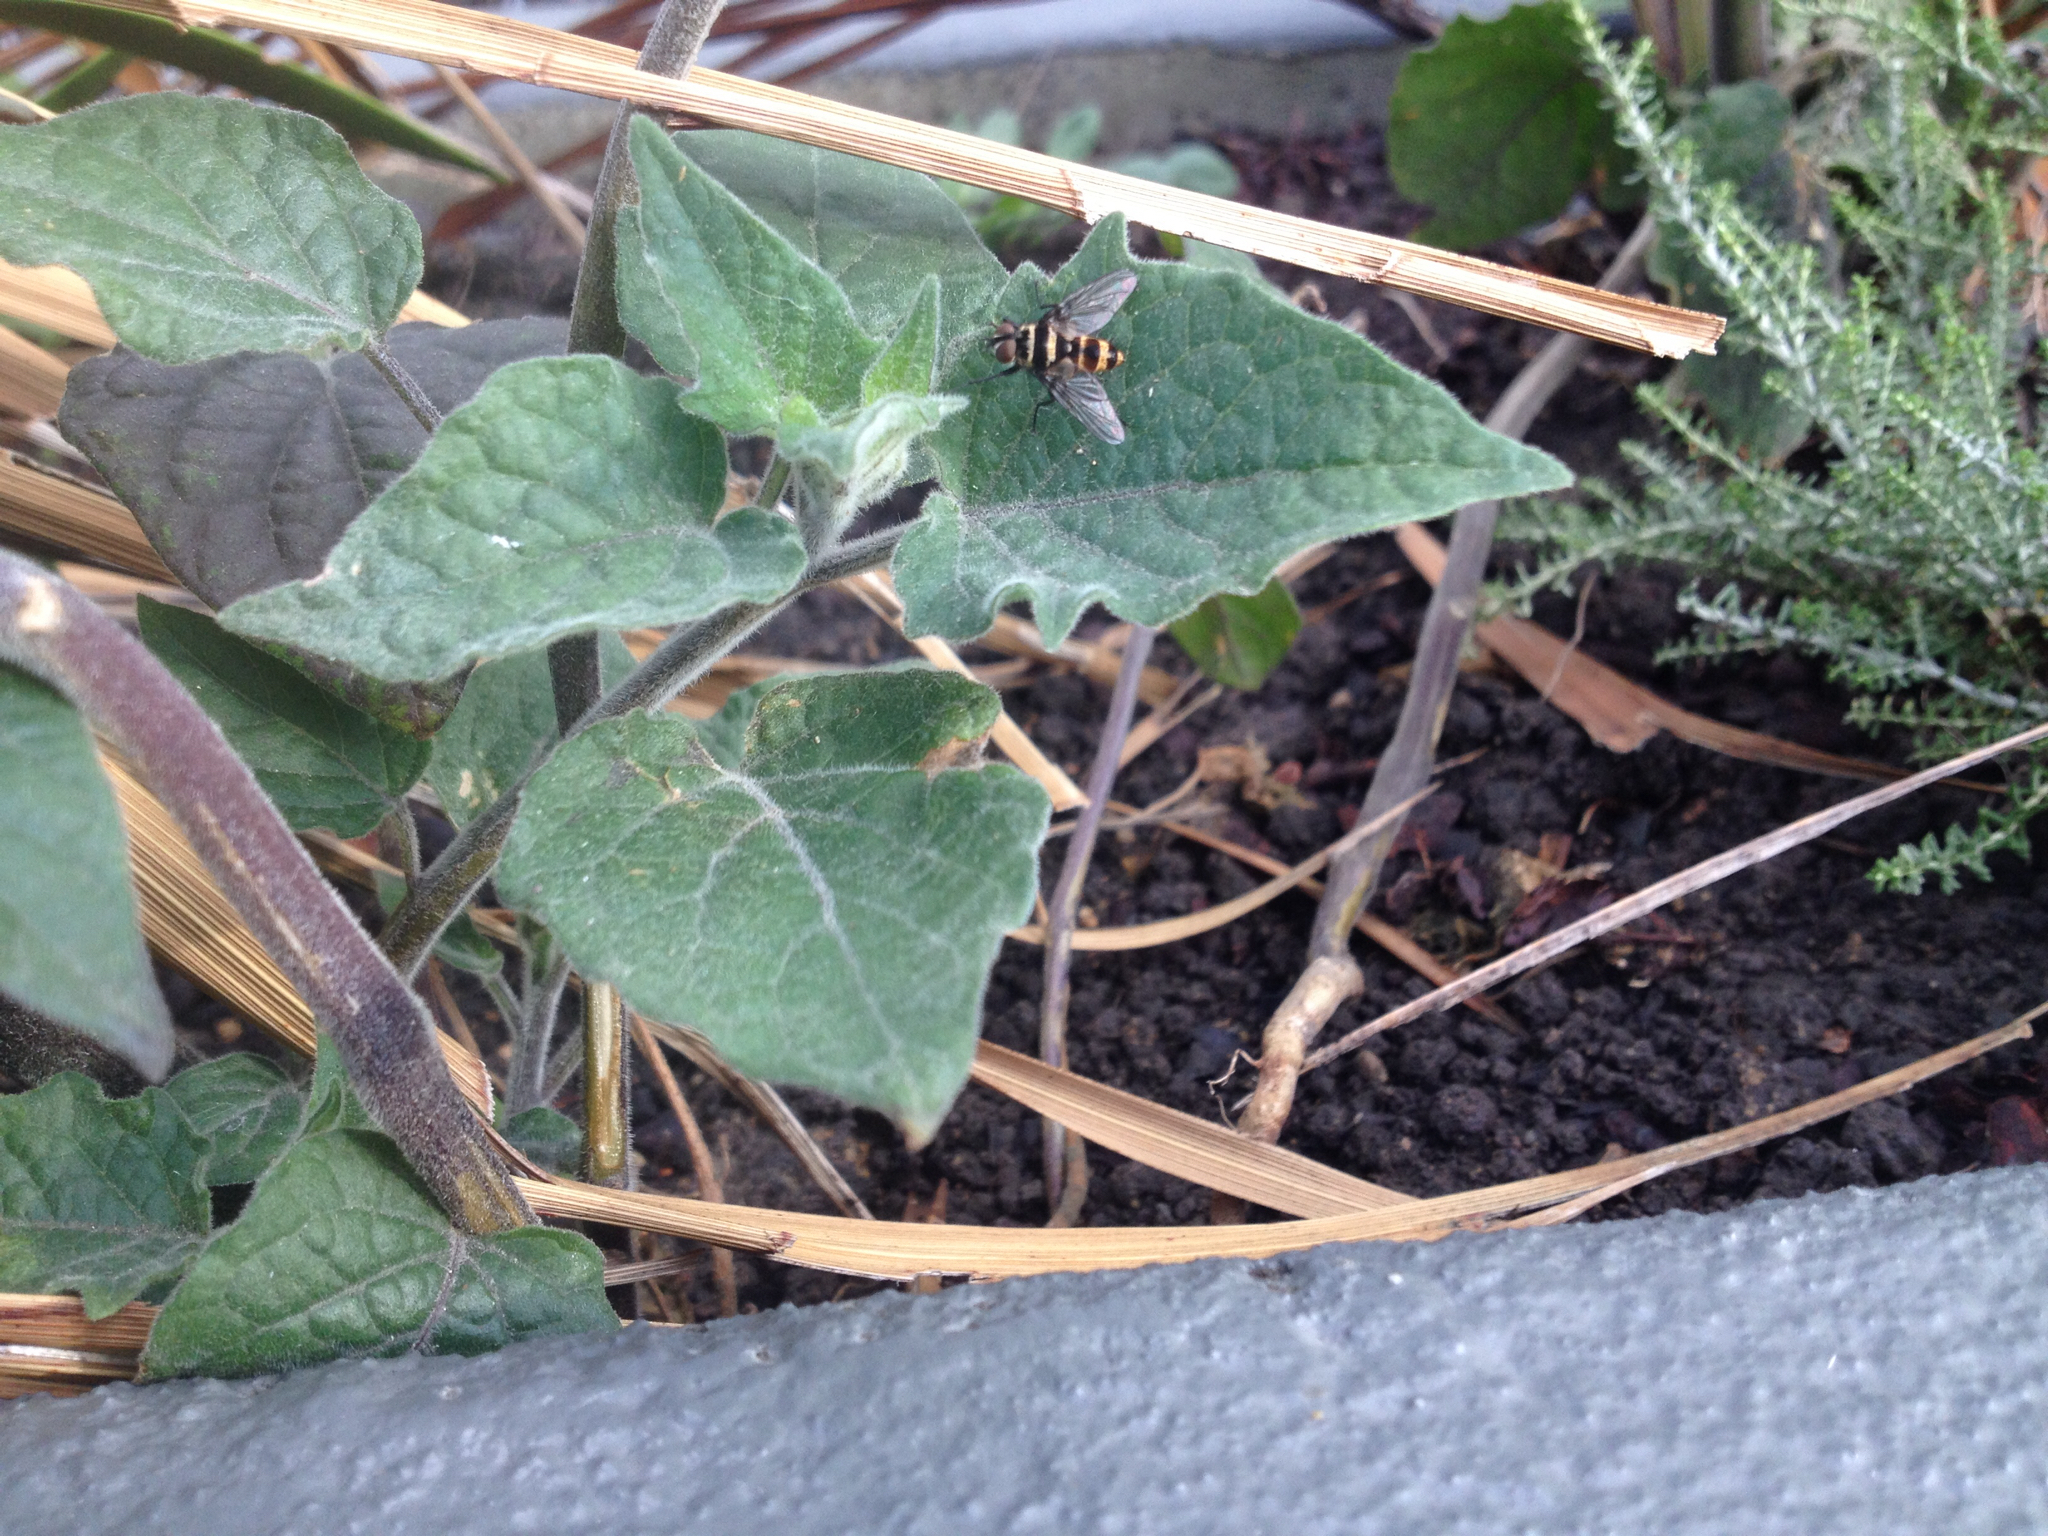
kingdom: Animalia
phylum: Arthropoda
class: Insecta
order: Diptera
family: Tachinidae
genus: Trigonospila
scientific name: Trigonospila brevifacies
